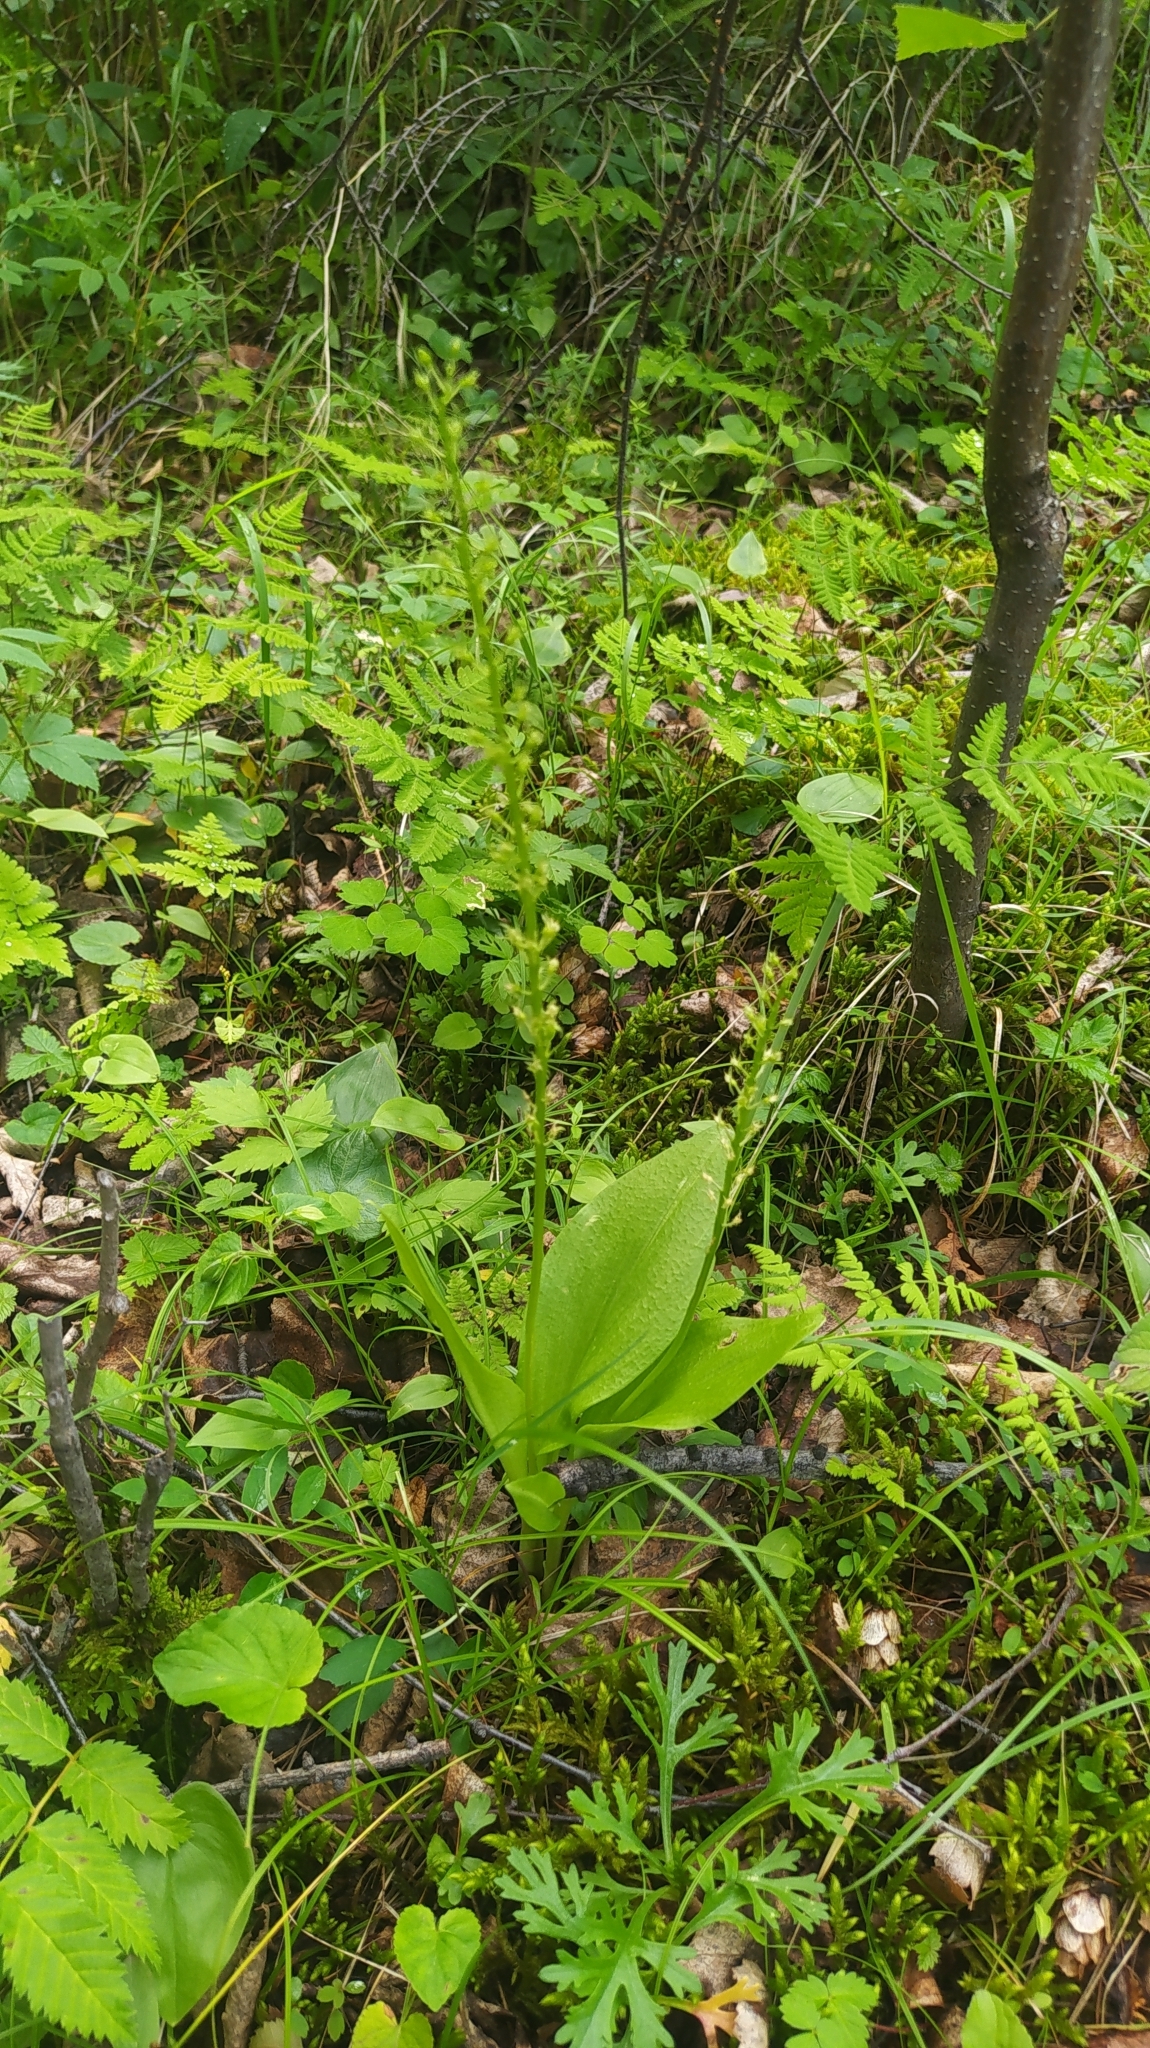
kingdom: Plantae
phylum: Tracheophyta
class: Liliopsida
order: Asparagales
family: Orchidaceae
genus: Malaxis
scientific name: Malaxis monophyllos
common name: White adder's-mouth
